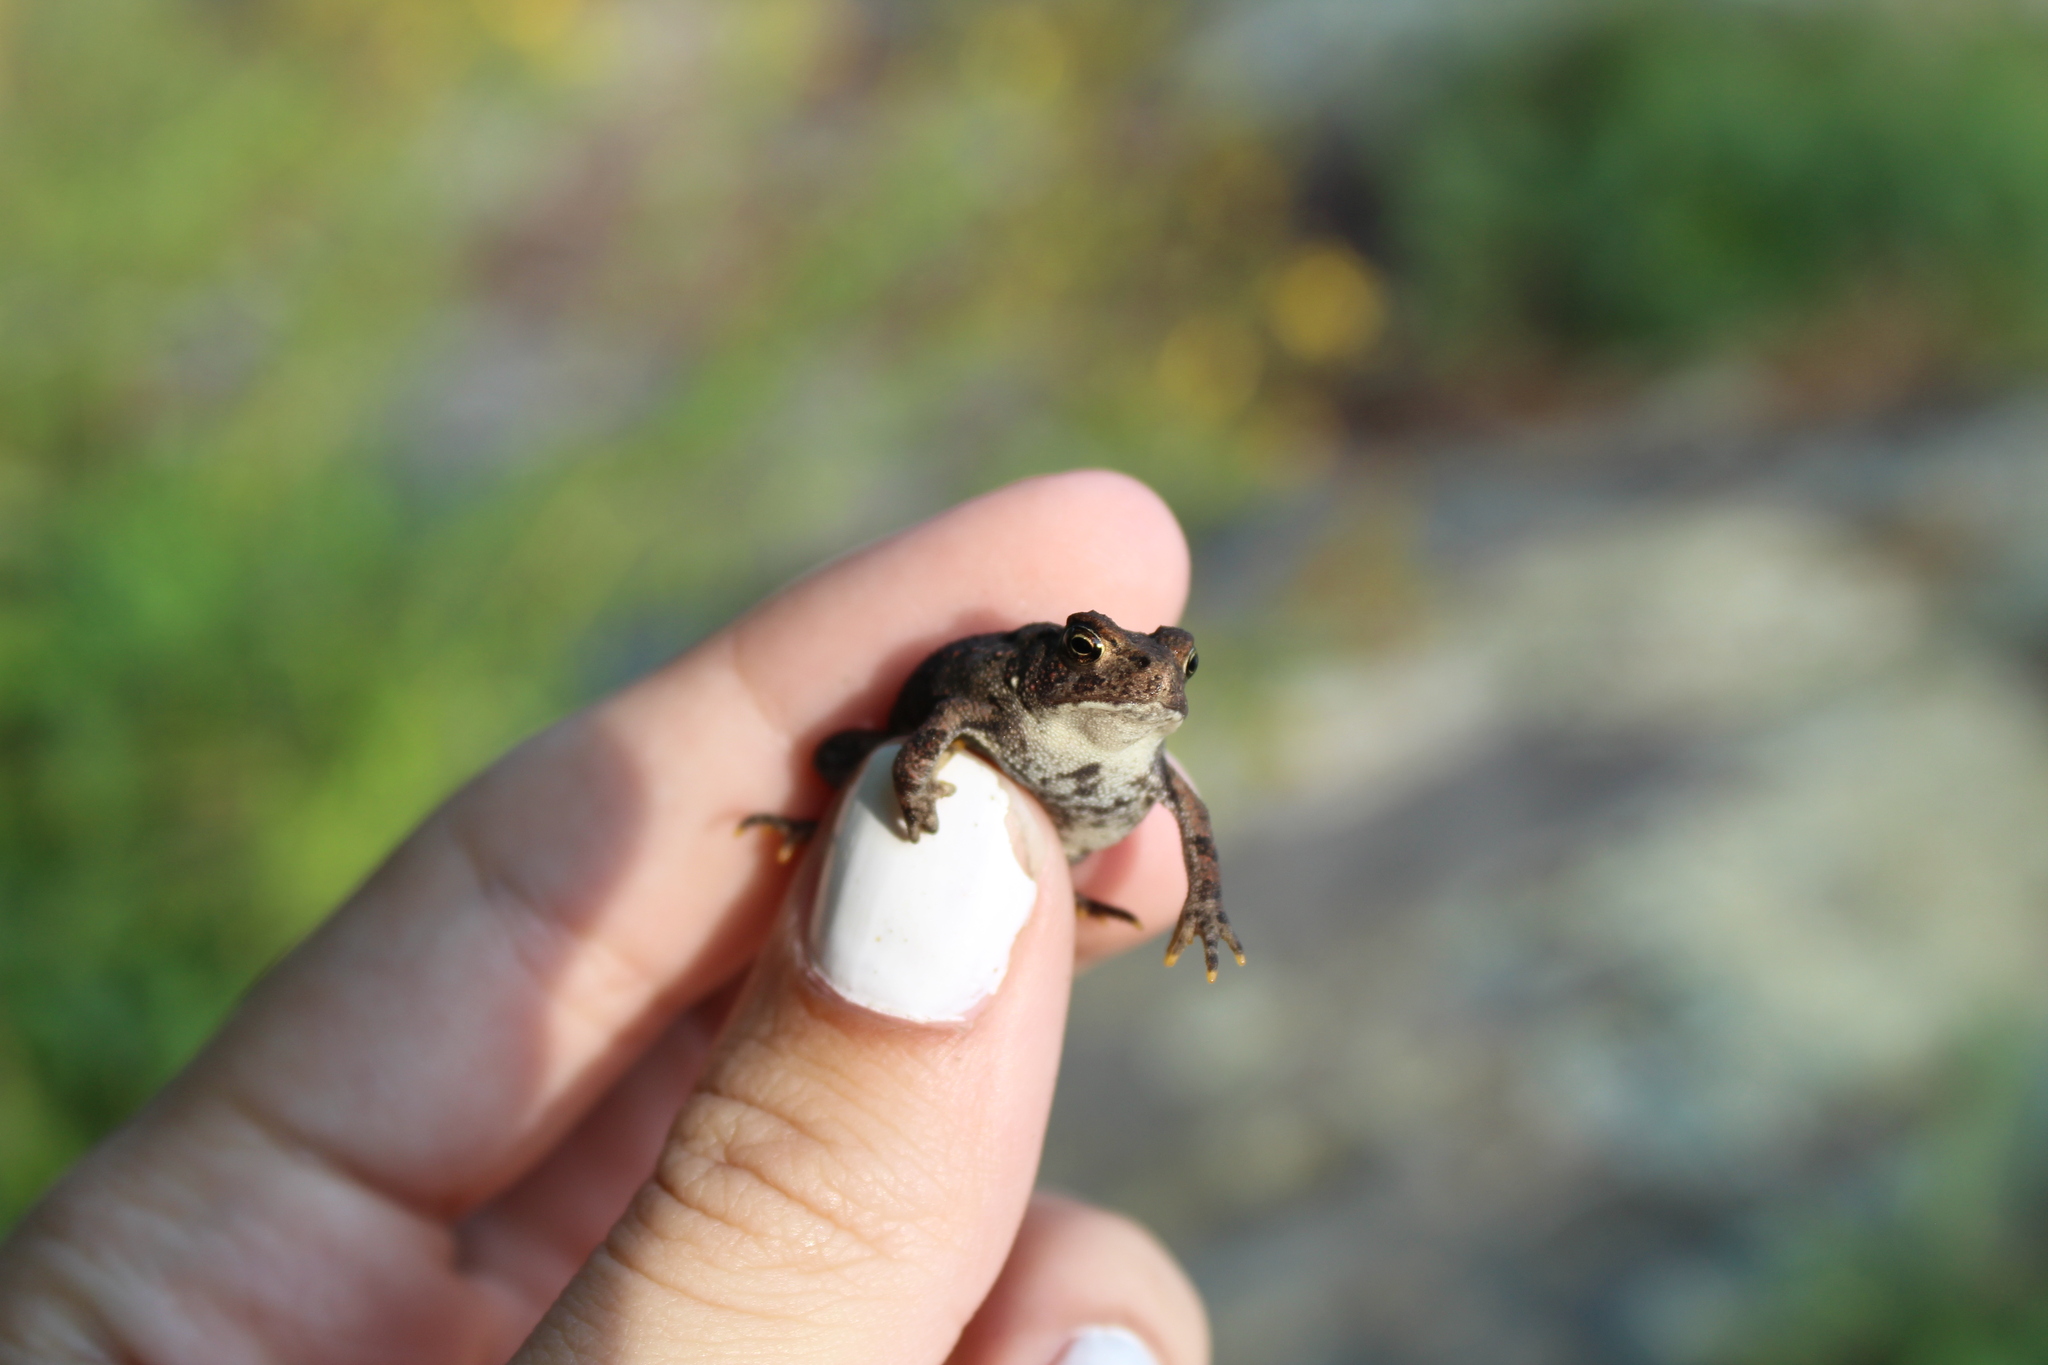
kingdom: Animalia
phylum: Chordata
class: Amphibia
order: Anura
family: Bufonidae
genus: Anaxyrus
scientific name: Anaxyrus americanus
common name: American toad
